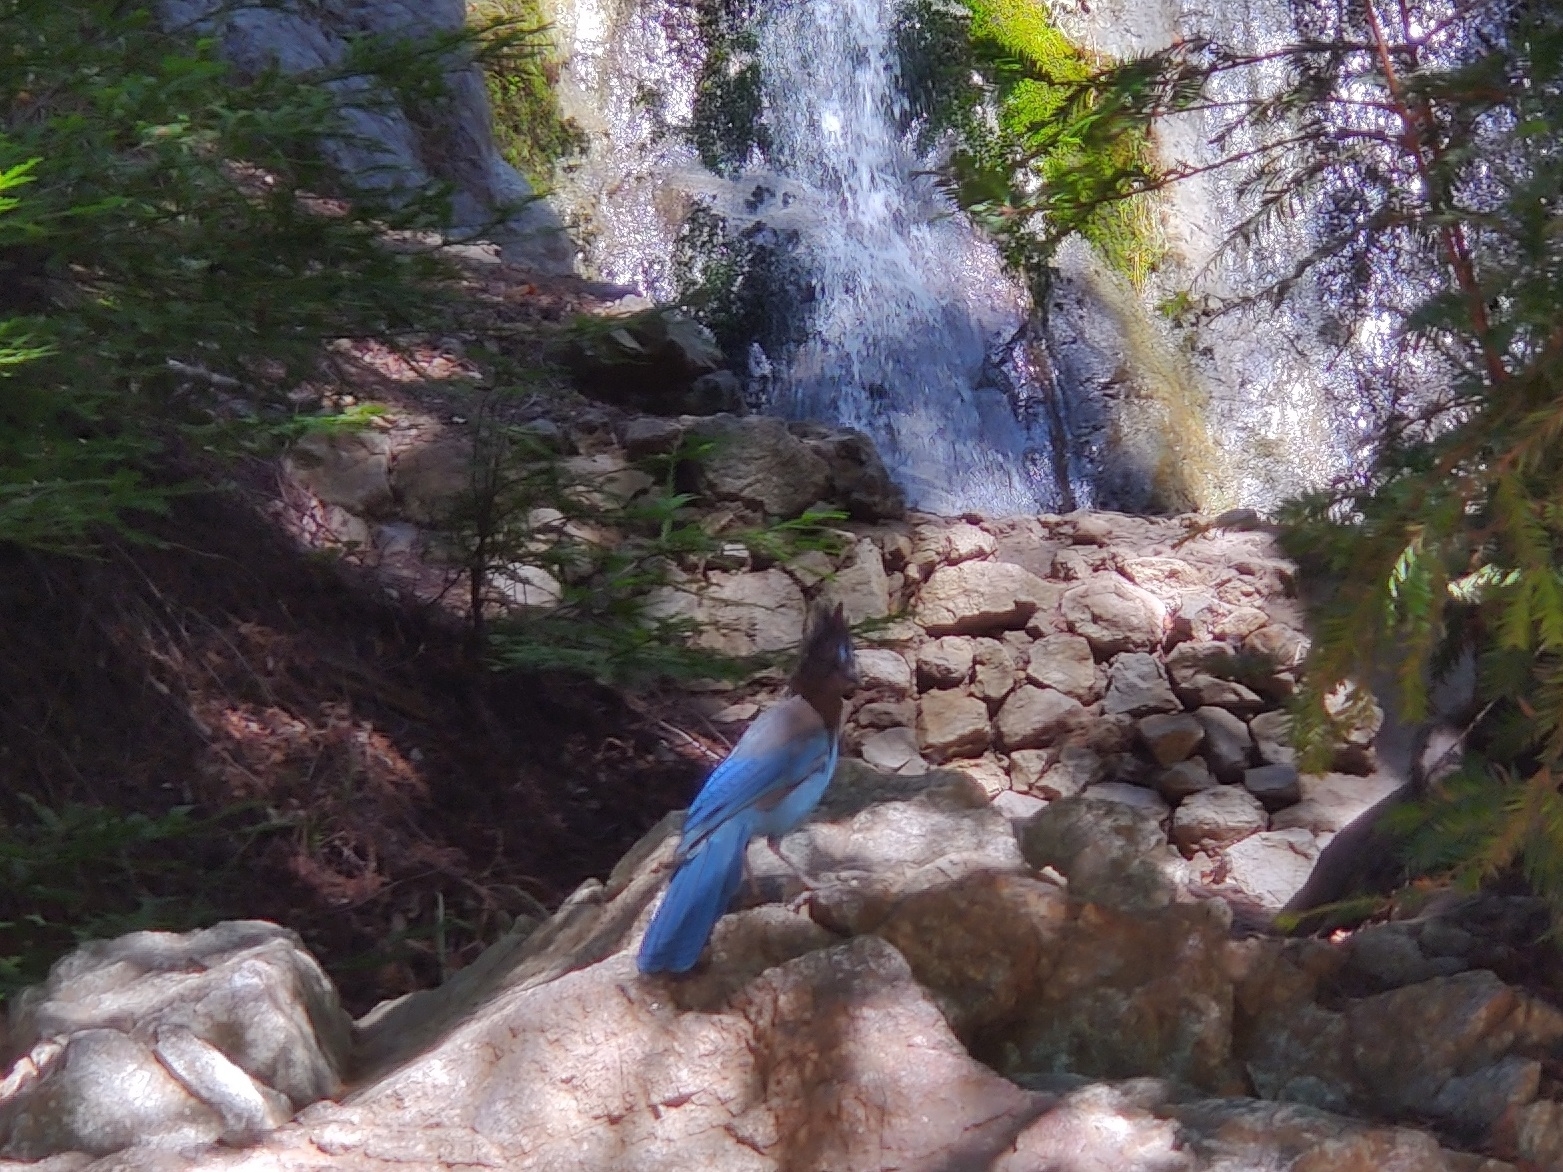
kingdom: Animalia
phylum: Chordata
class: Aves
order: Passeriformes
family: Corvidae
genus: Cyanocitta
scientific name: Cyanocitta stelleri
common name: Steller's jay
